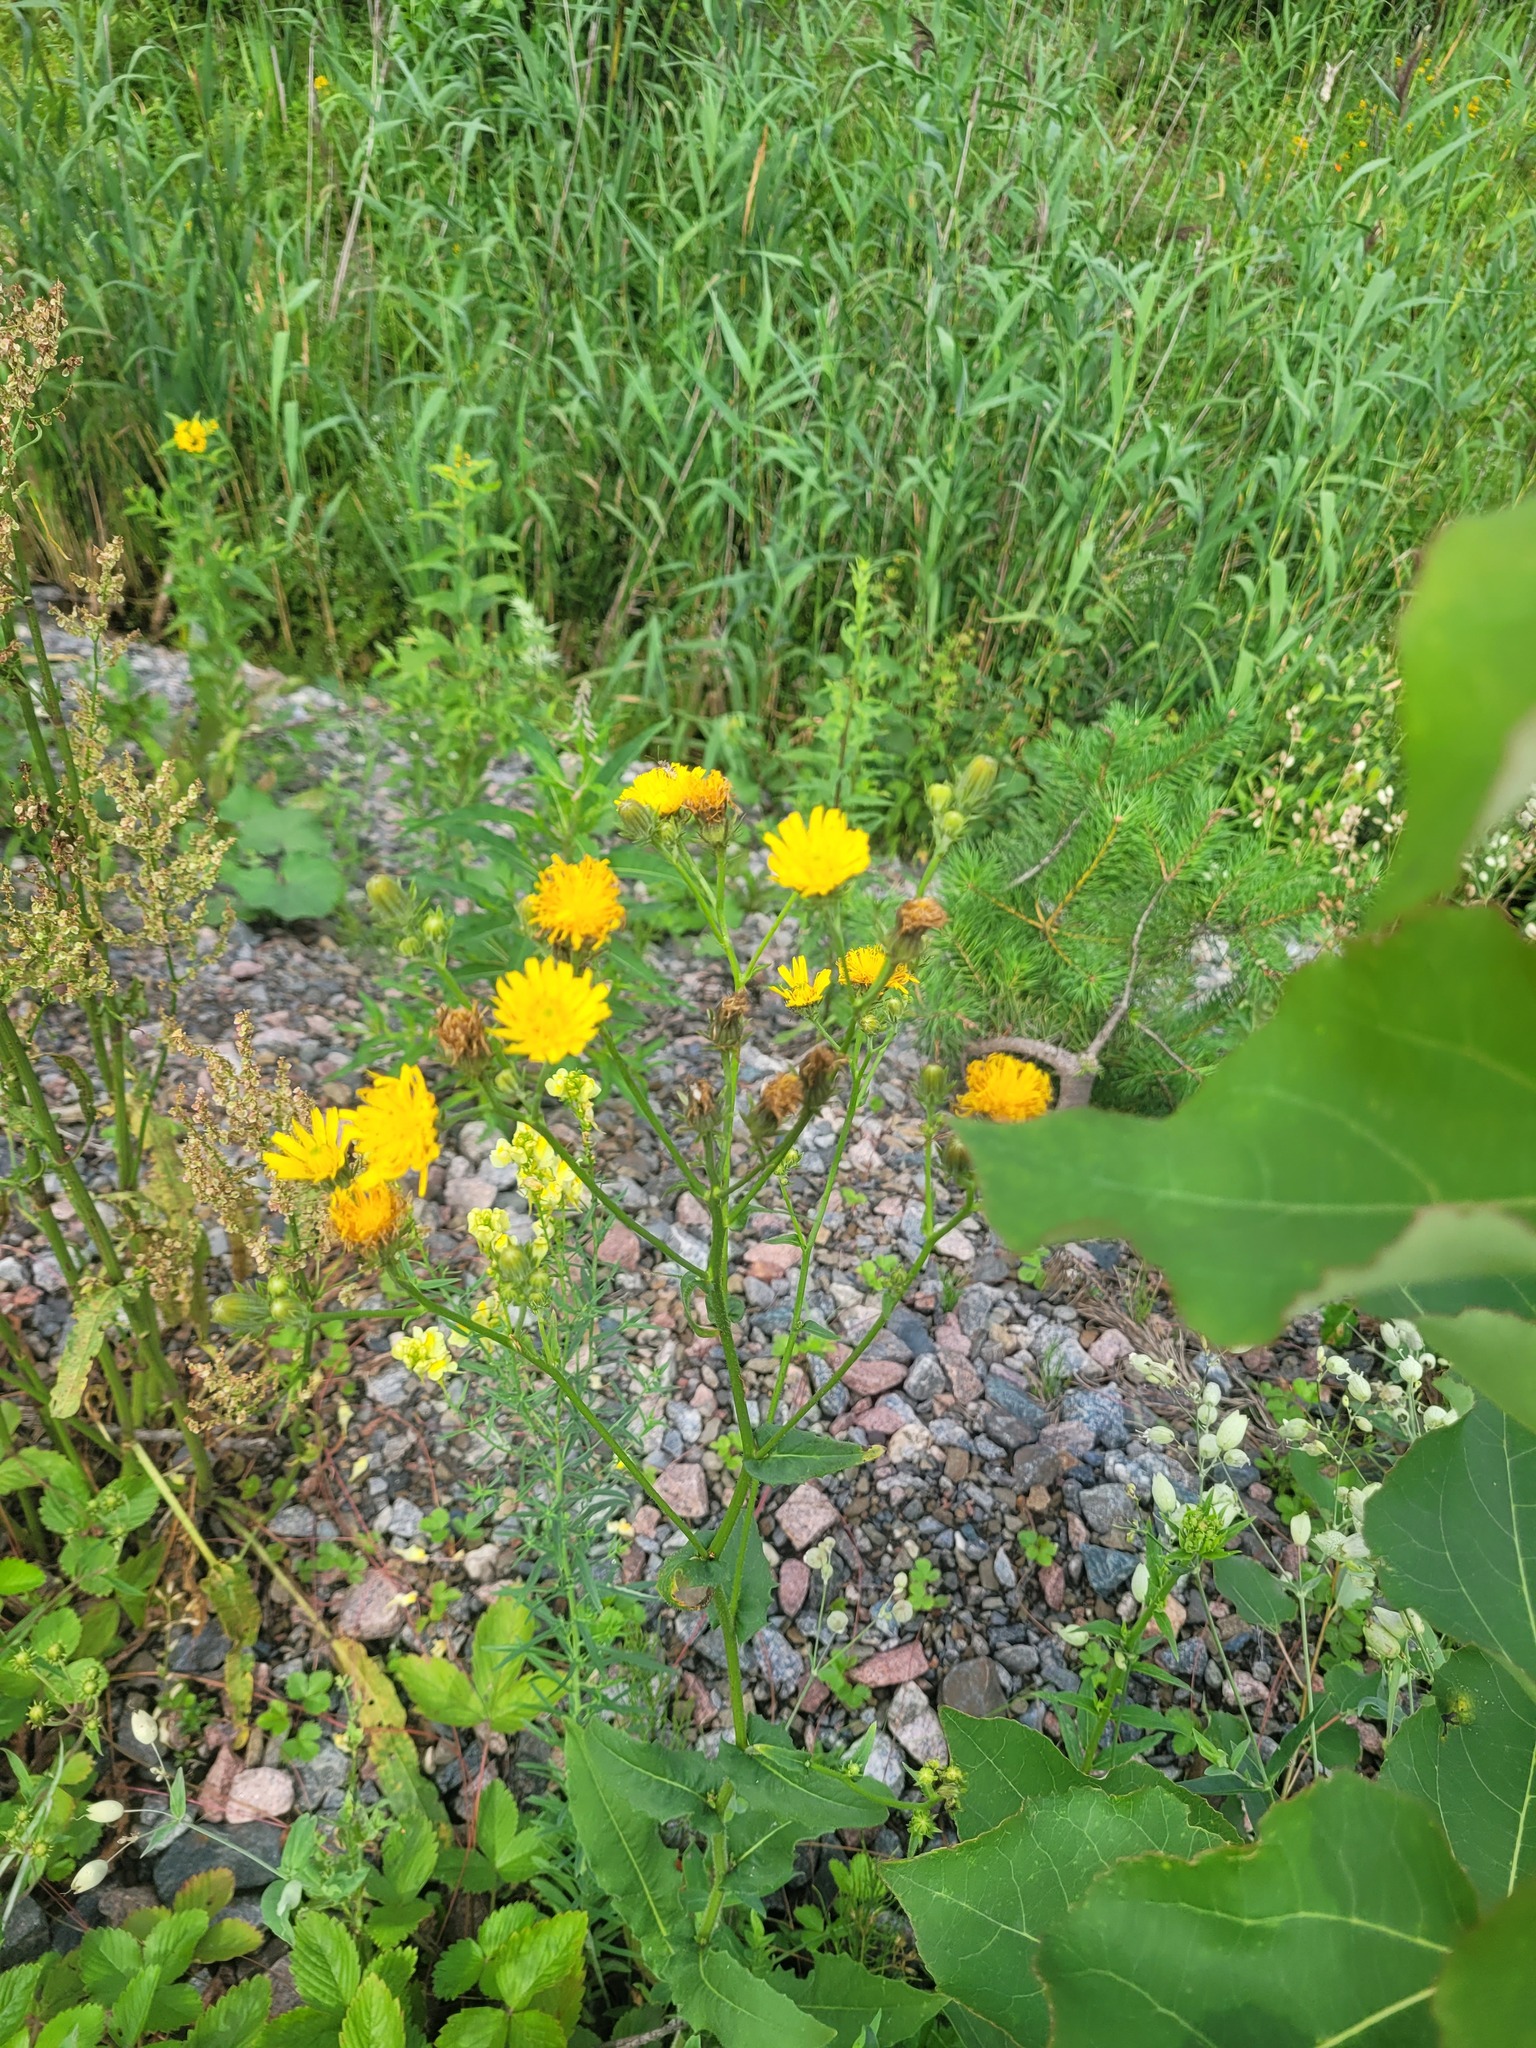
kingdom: Plantae
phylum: Tracheophyta
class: Magnoliopsida
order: Asterales
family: Asteraceae
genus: Picris
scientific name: Picris hieracioides
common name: Hawkweed oxtongue
